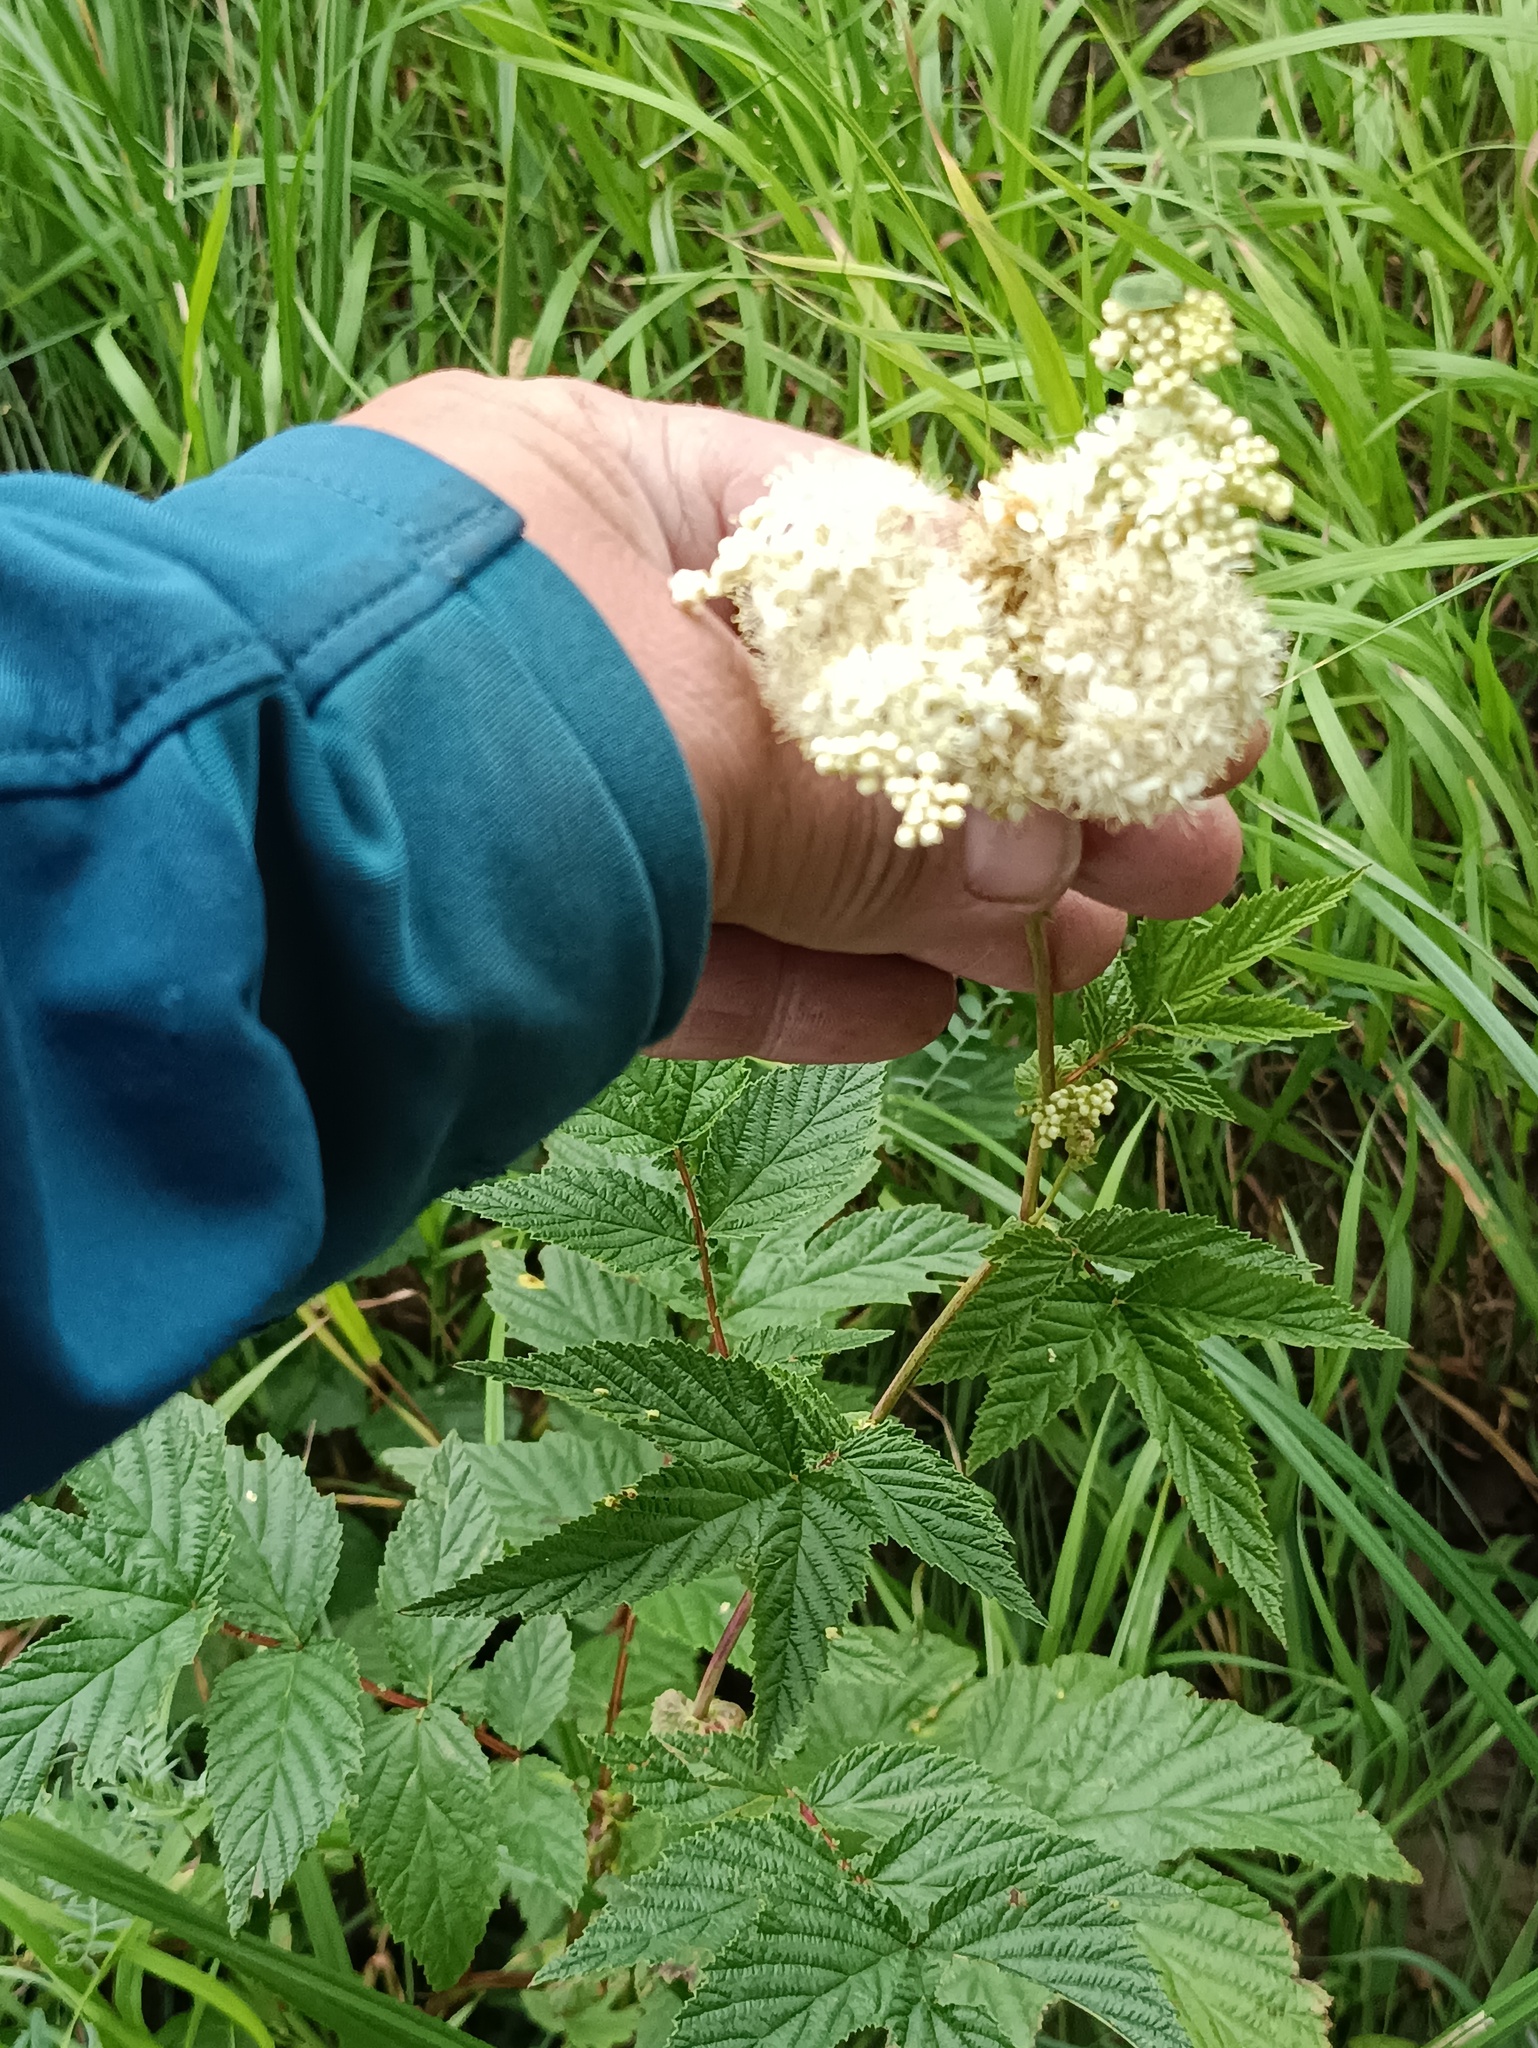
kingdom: Plantae
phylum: Tracheophyta
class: Magnoliopsida
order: Rosales
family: Rosaceae
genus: Filipendula
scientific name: Filipendula ulmaria
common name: Meadowsweet
